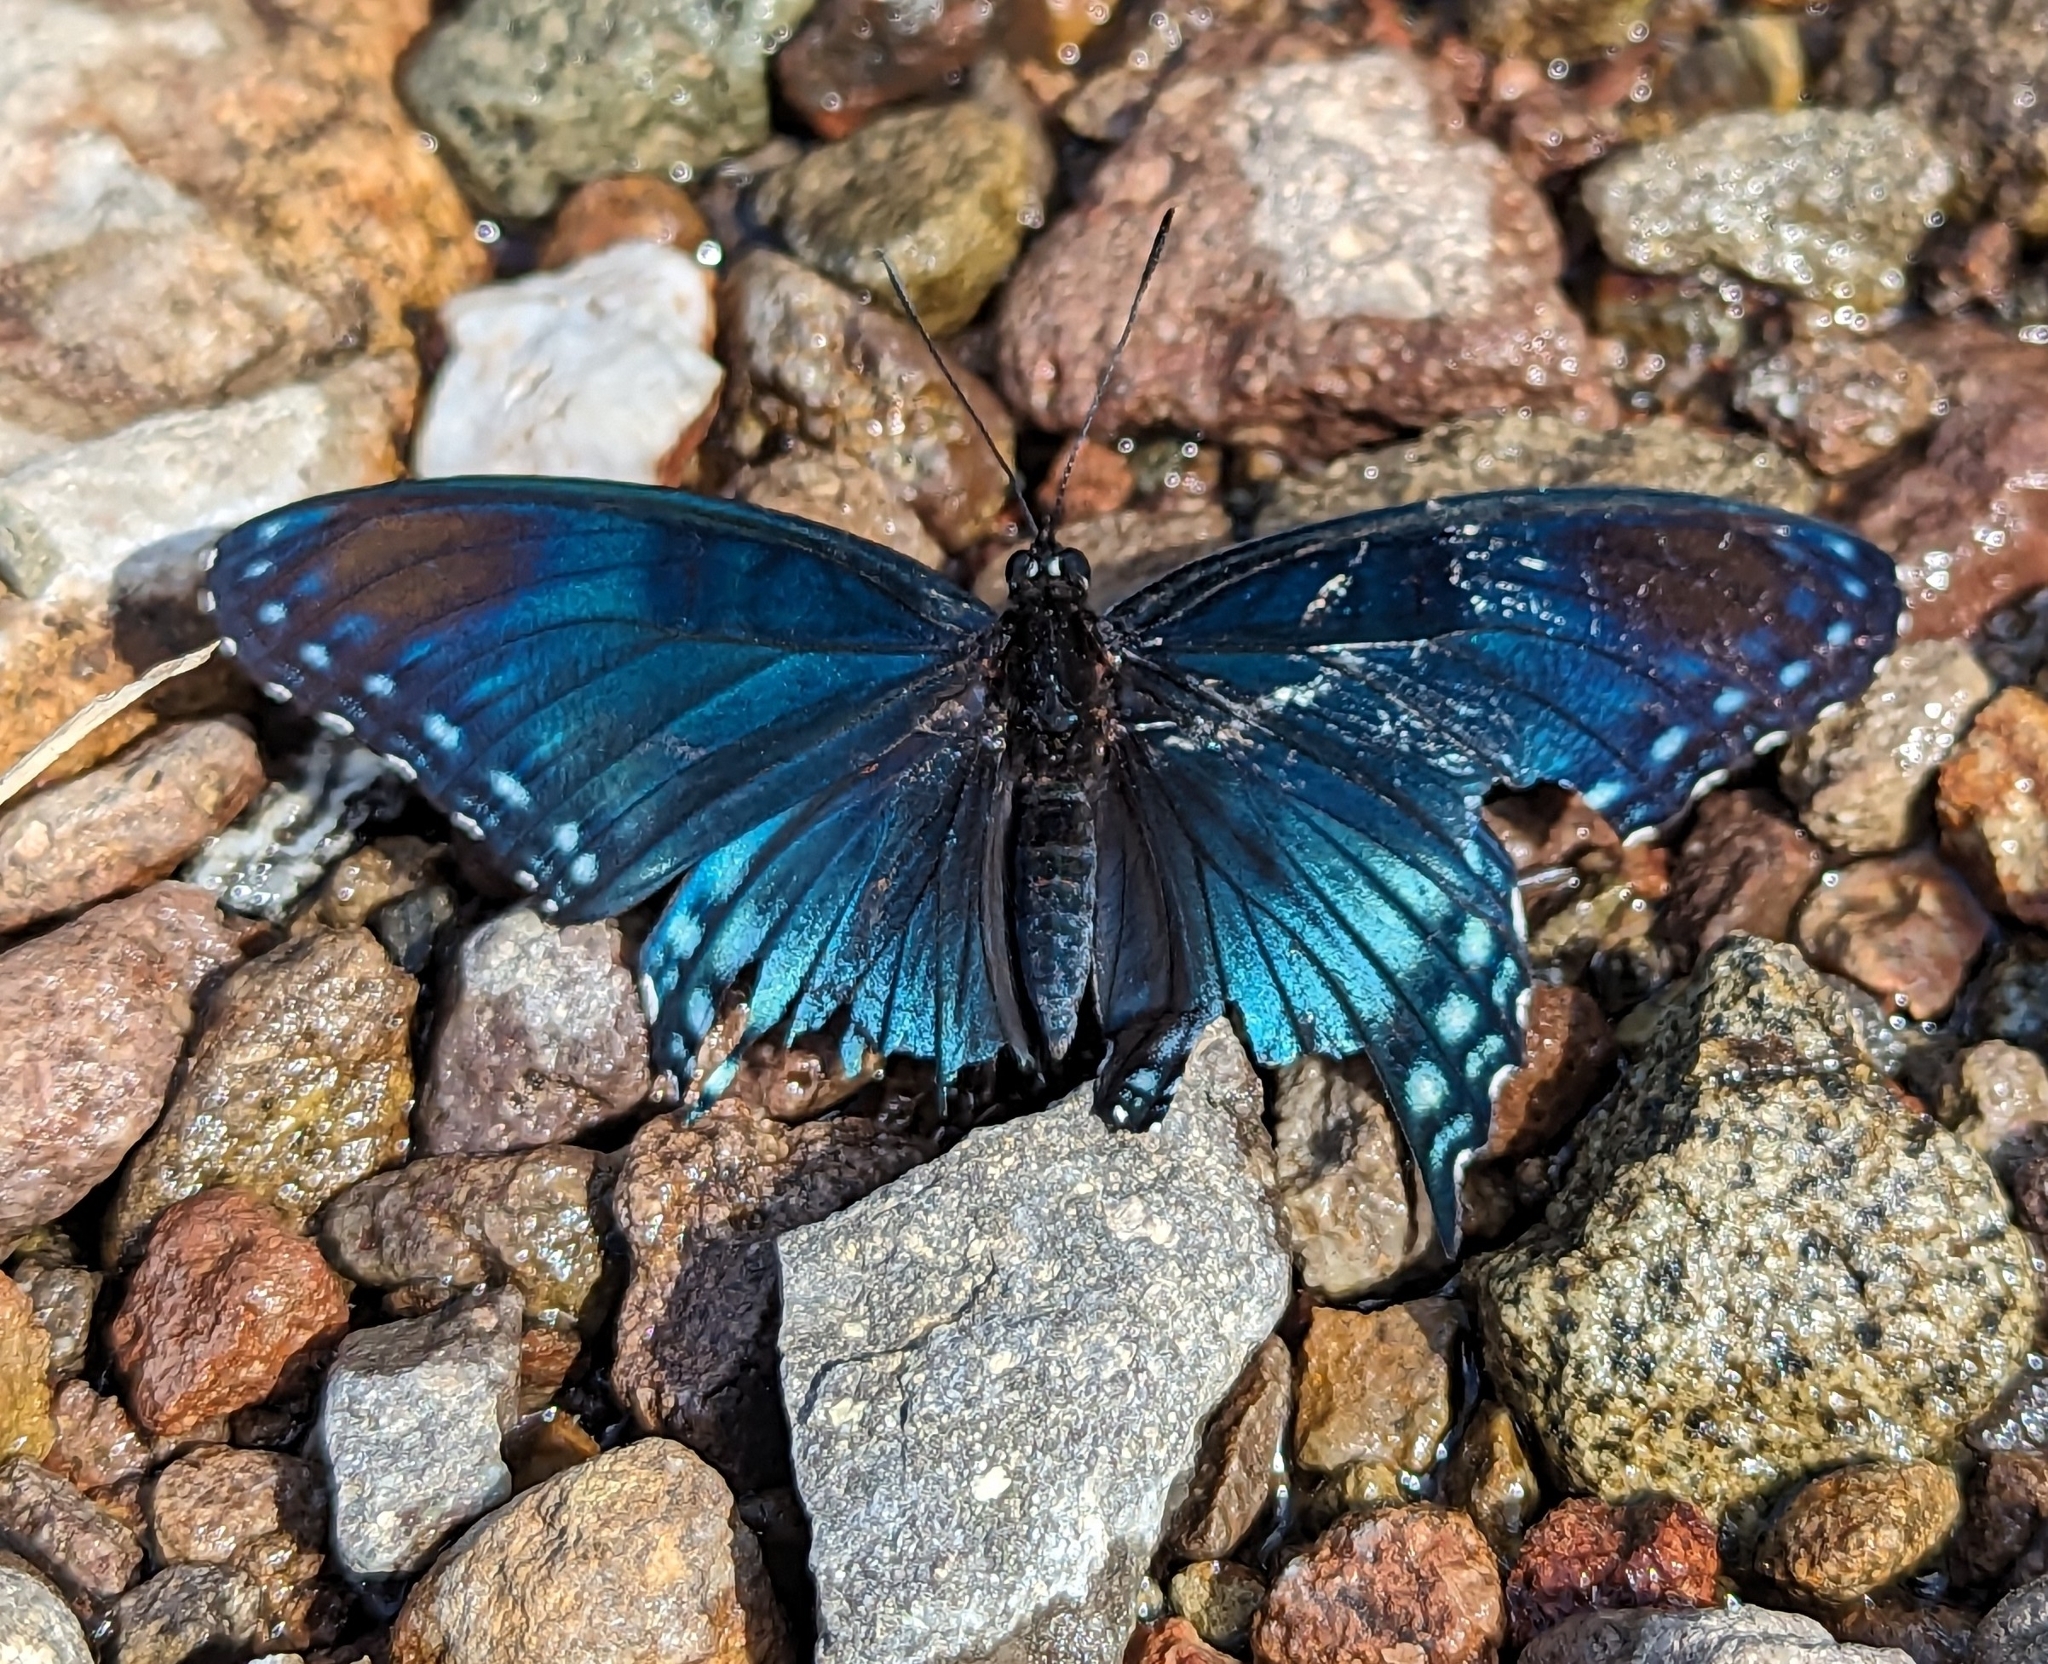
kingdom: Animalia
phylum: Arthropoda
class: Insecta
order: Lepidoptera
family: Nymphalidae
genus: Limenitis
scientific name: Limenitis arthemis
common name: Red-spotted admiral
